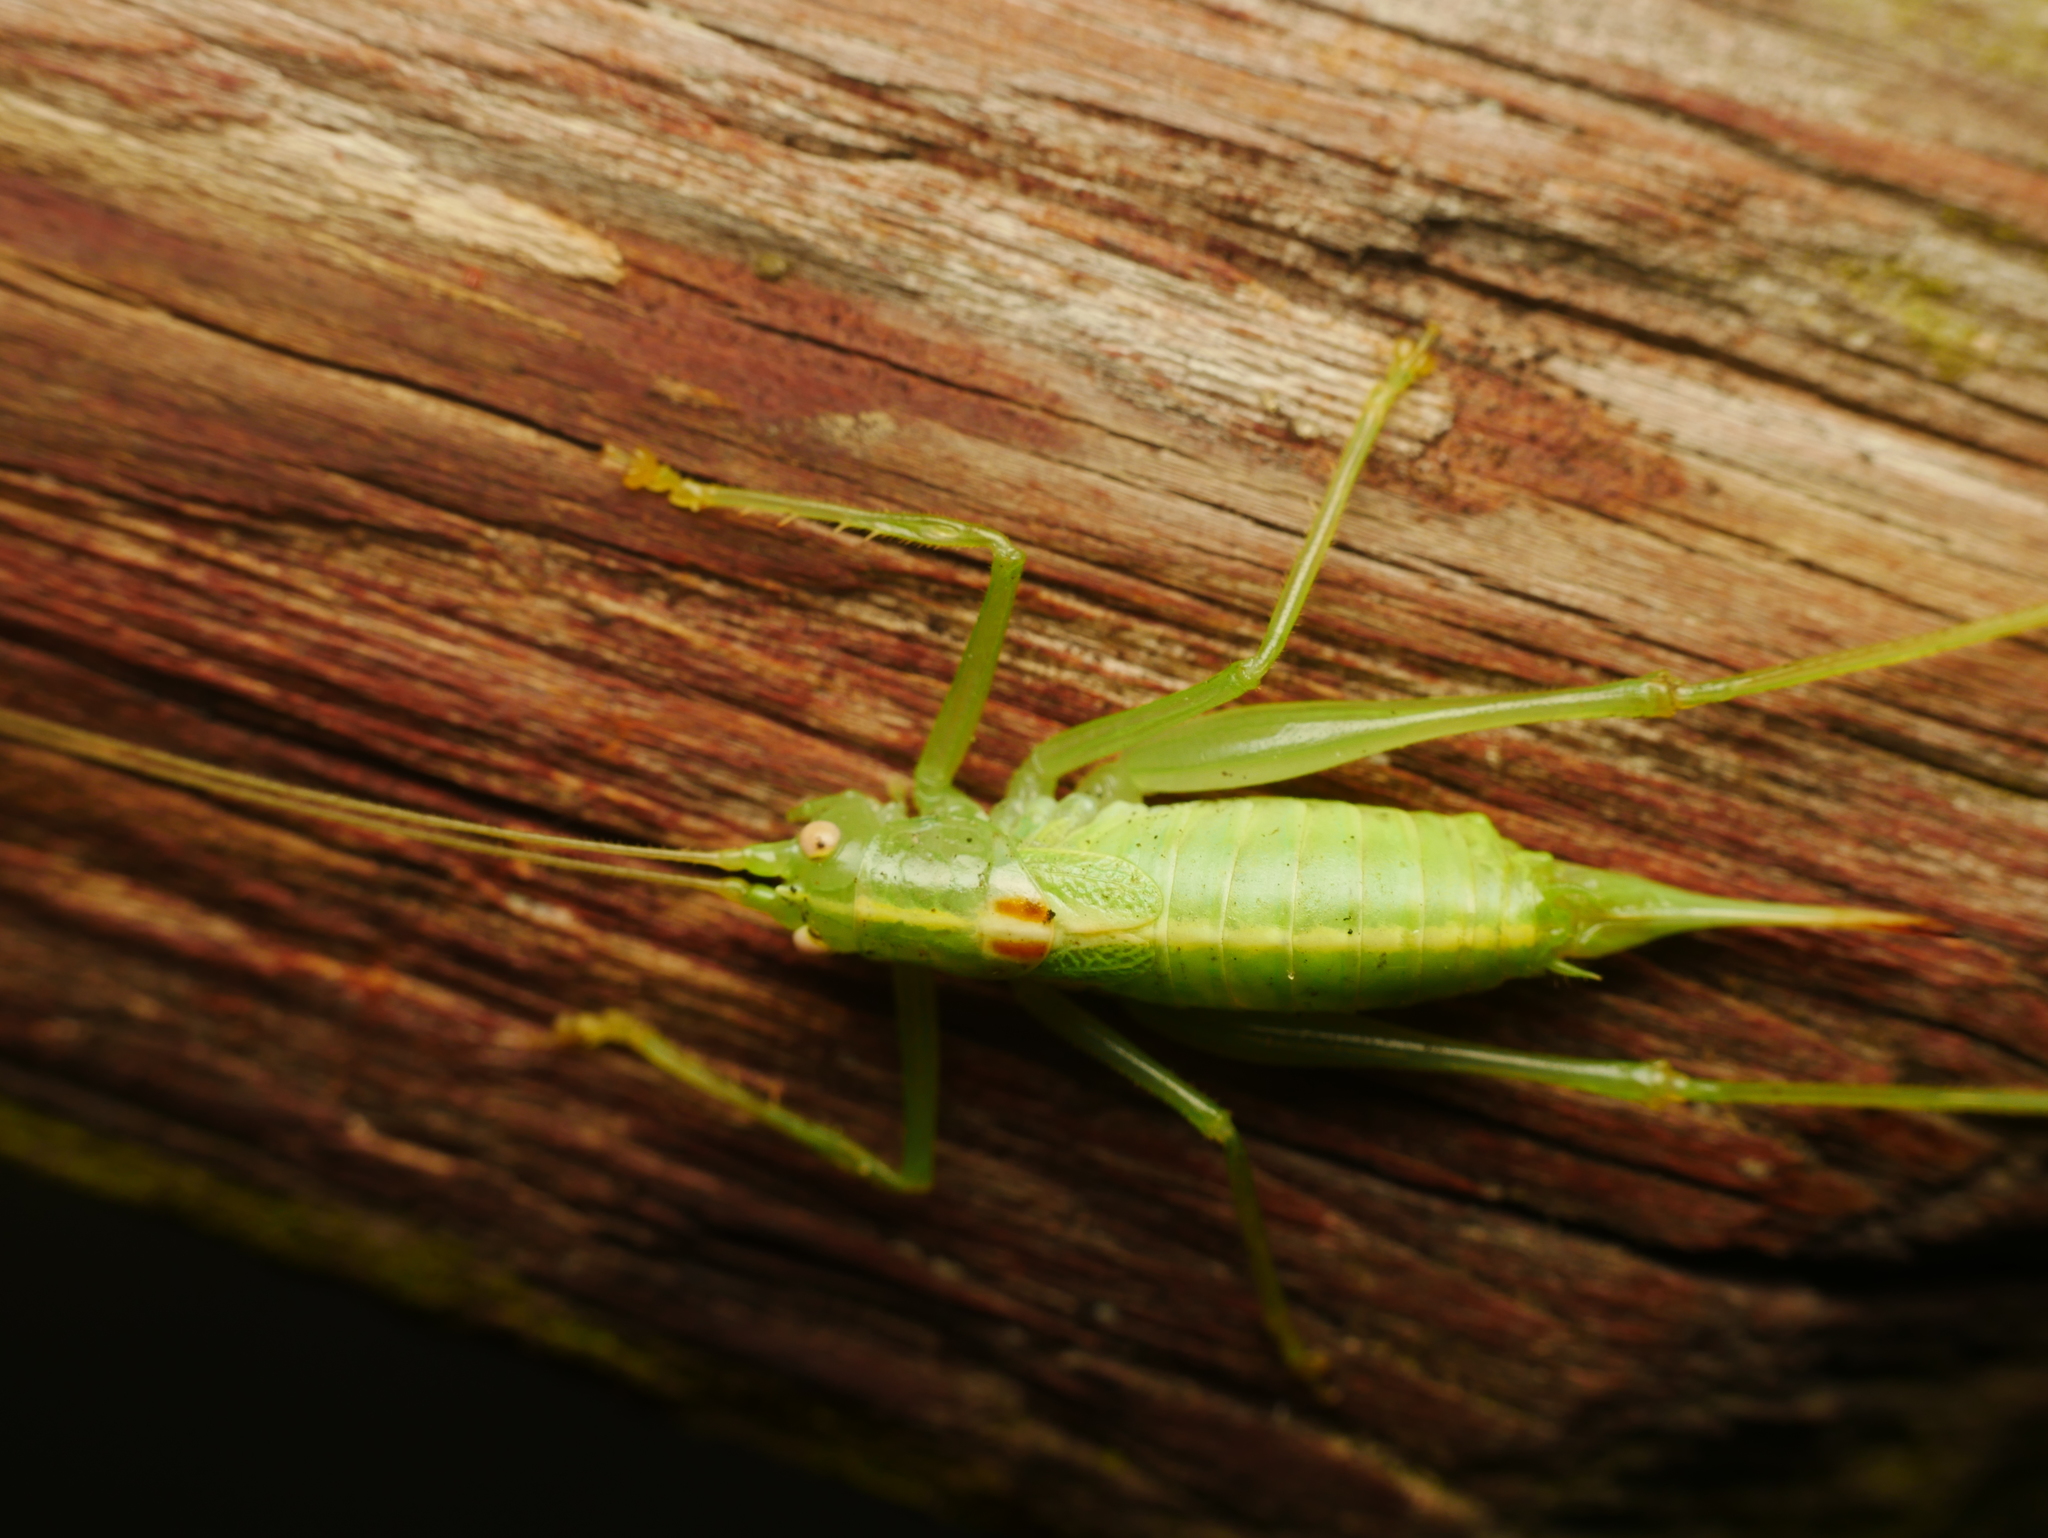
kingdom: Animalia
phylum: Arthropoda
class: Insecta
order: Orthoptera
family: Tettigoniidae
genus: Meconema
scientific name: Meconema meridionale
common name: Southern oak bush-cricket
